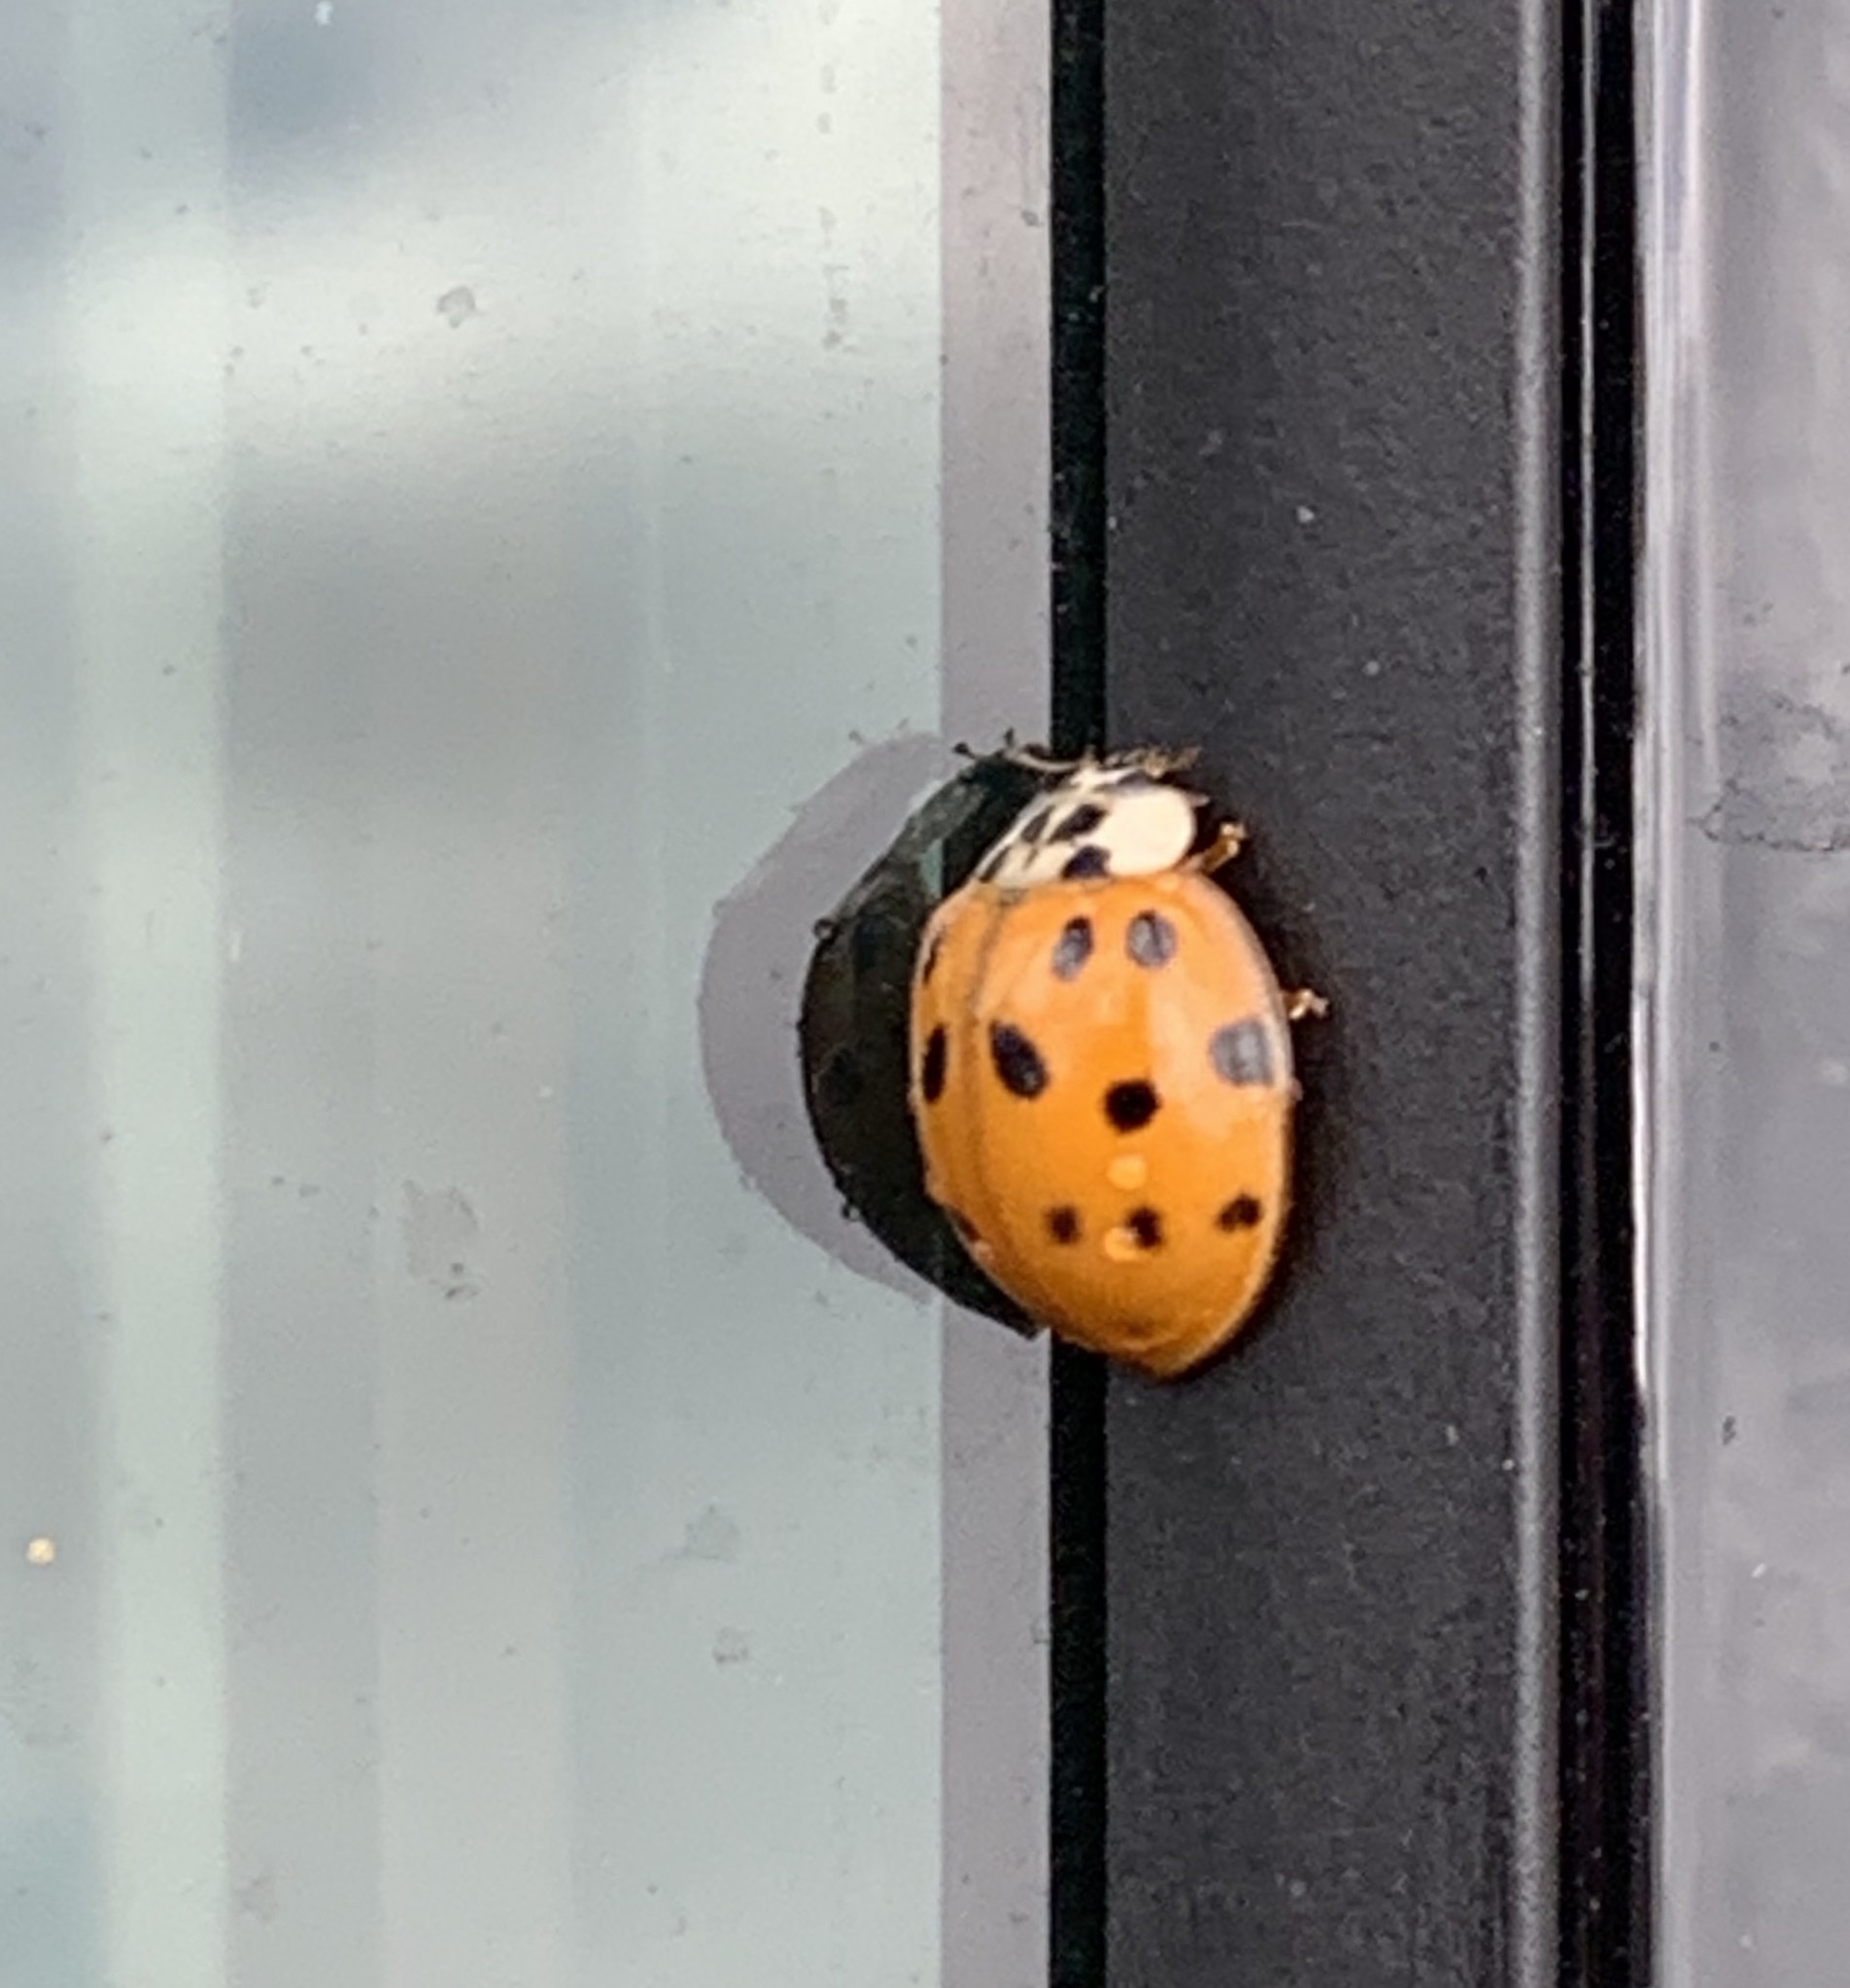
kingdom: Animalia
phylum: Arthropoda
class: Insecta
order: Coleoptera
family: Coccinellidae
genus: Harmonia
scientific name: Harmonia axyridis
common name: Harlequin ladybird
